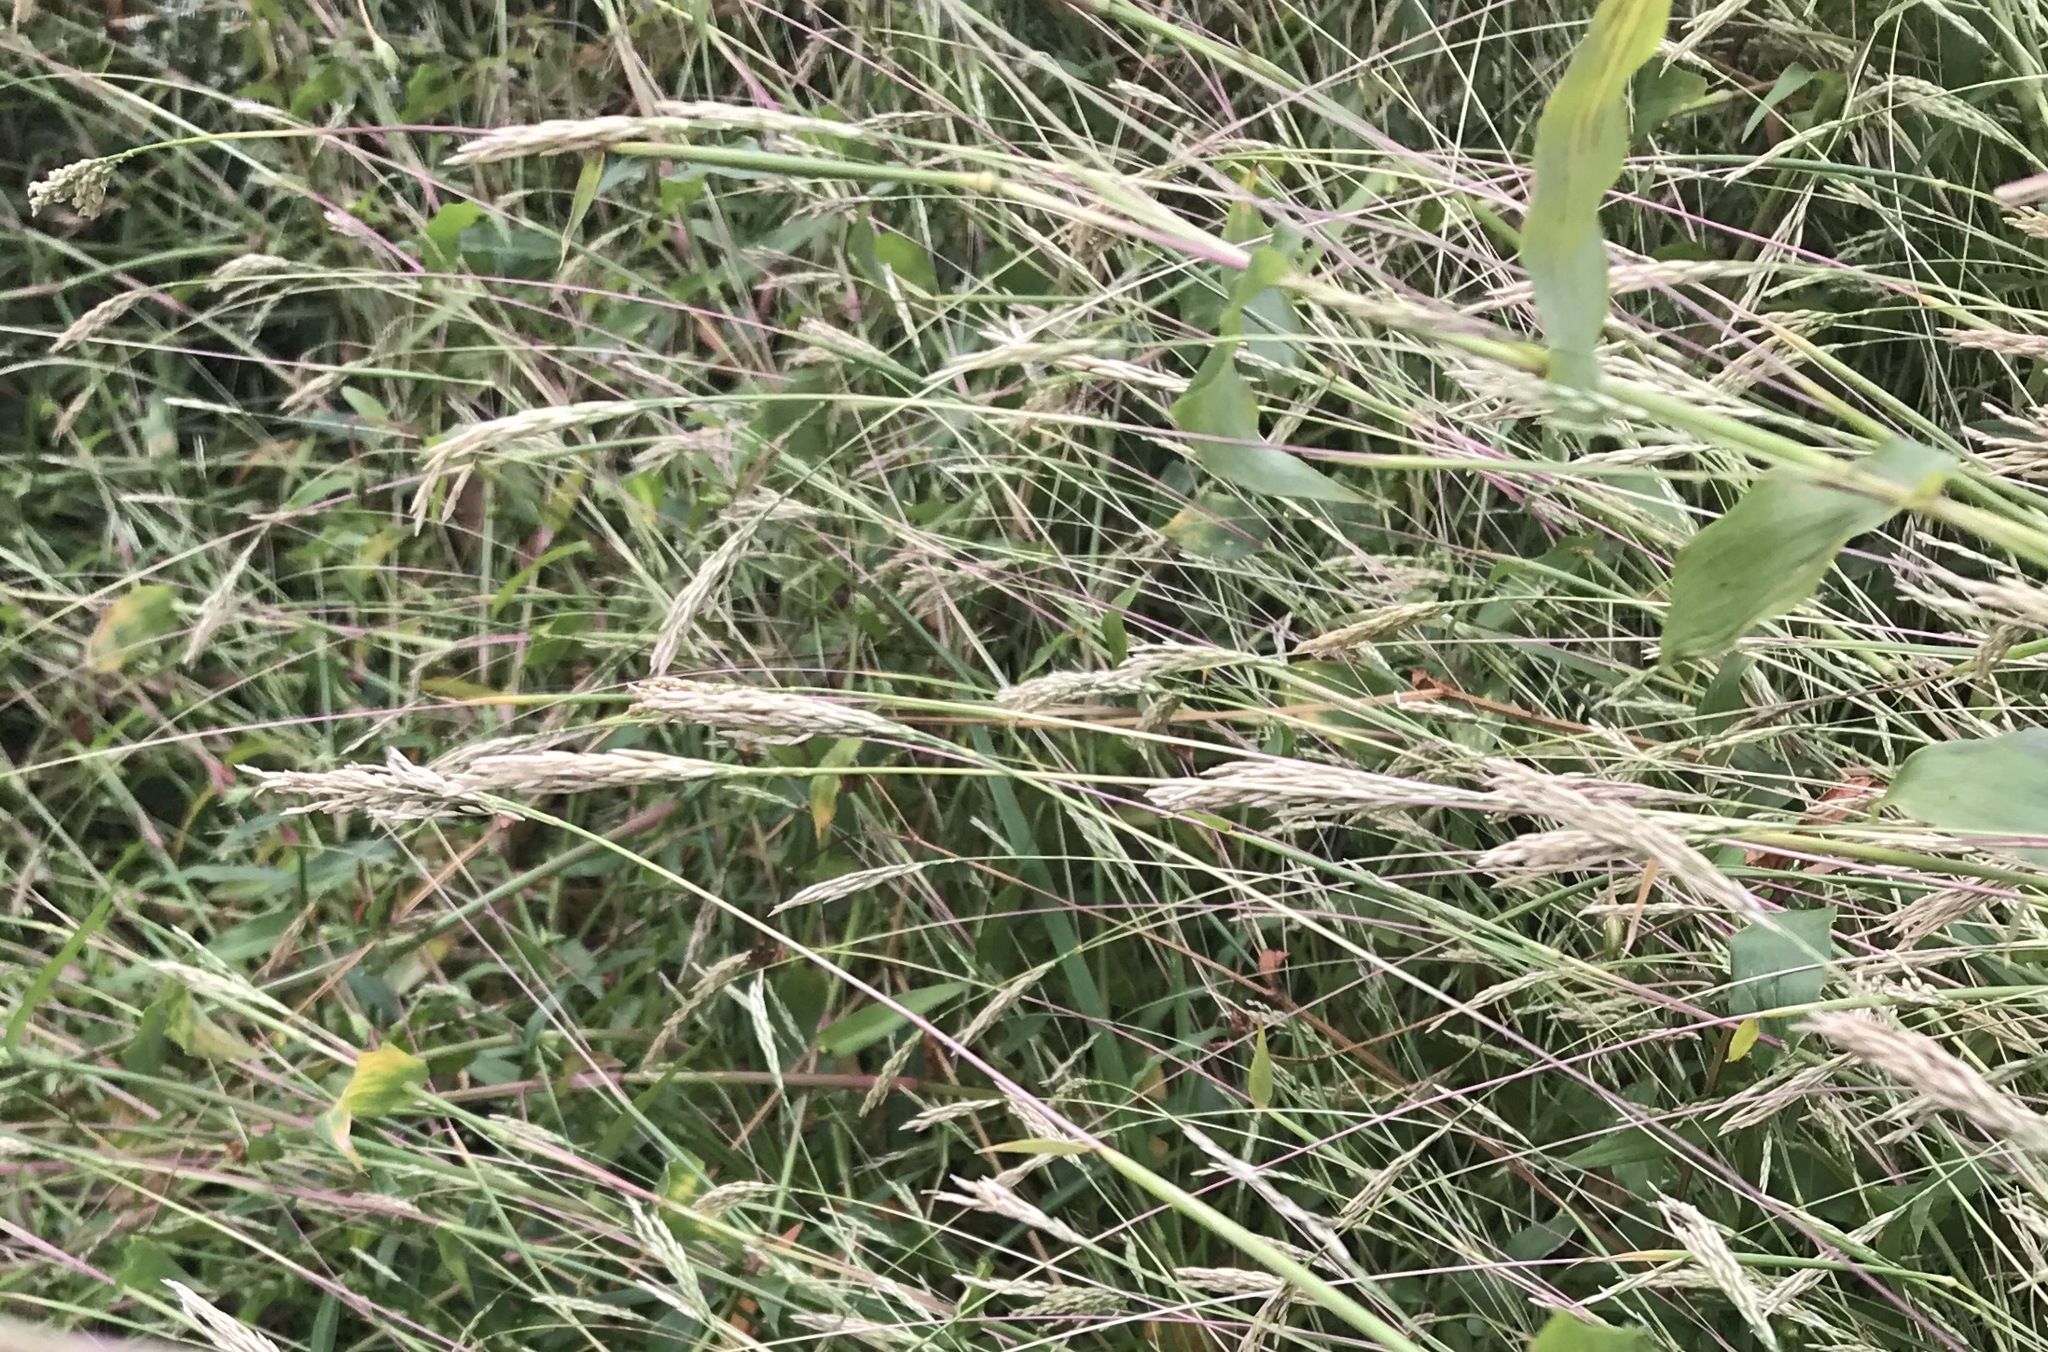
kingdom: Plantae
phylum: Tracheophyta
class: Liliopsida
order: Poales
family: Poaceae
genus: Arthraxon
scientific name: Arthraxon hispidus
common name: Small carpgrass
